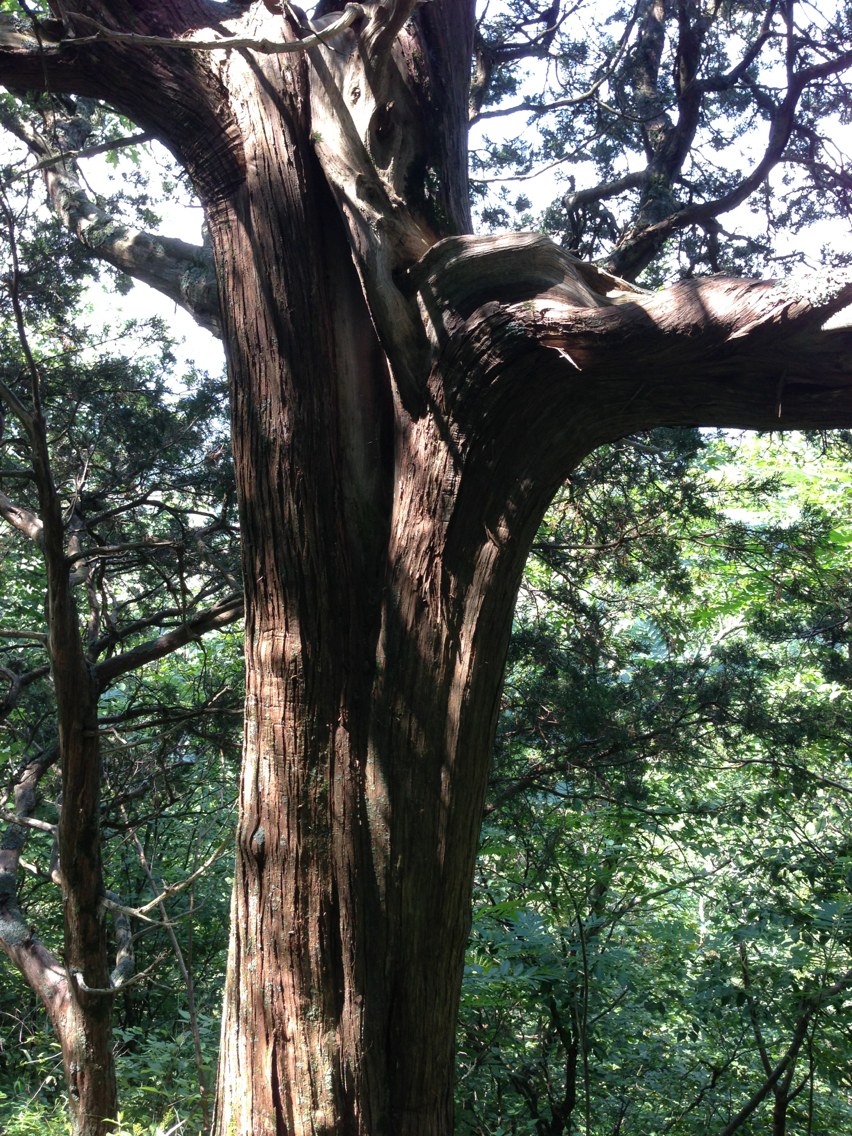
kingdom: Plantae
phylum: Tracheophyta
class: Pinopsida
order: Pinales
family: Cupressaceae
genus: Juniperus
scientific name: Juniperus virginiana
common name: Red juniper
